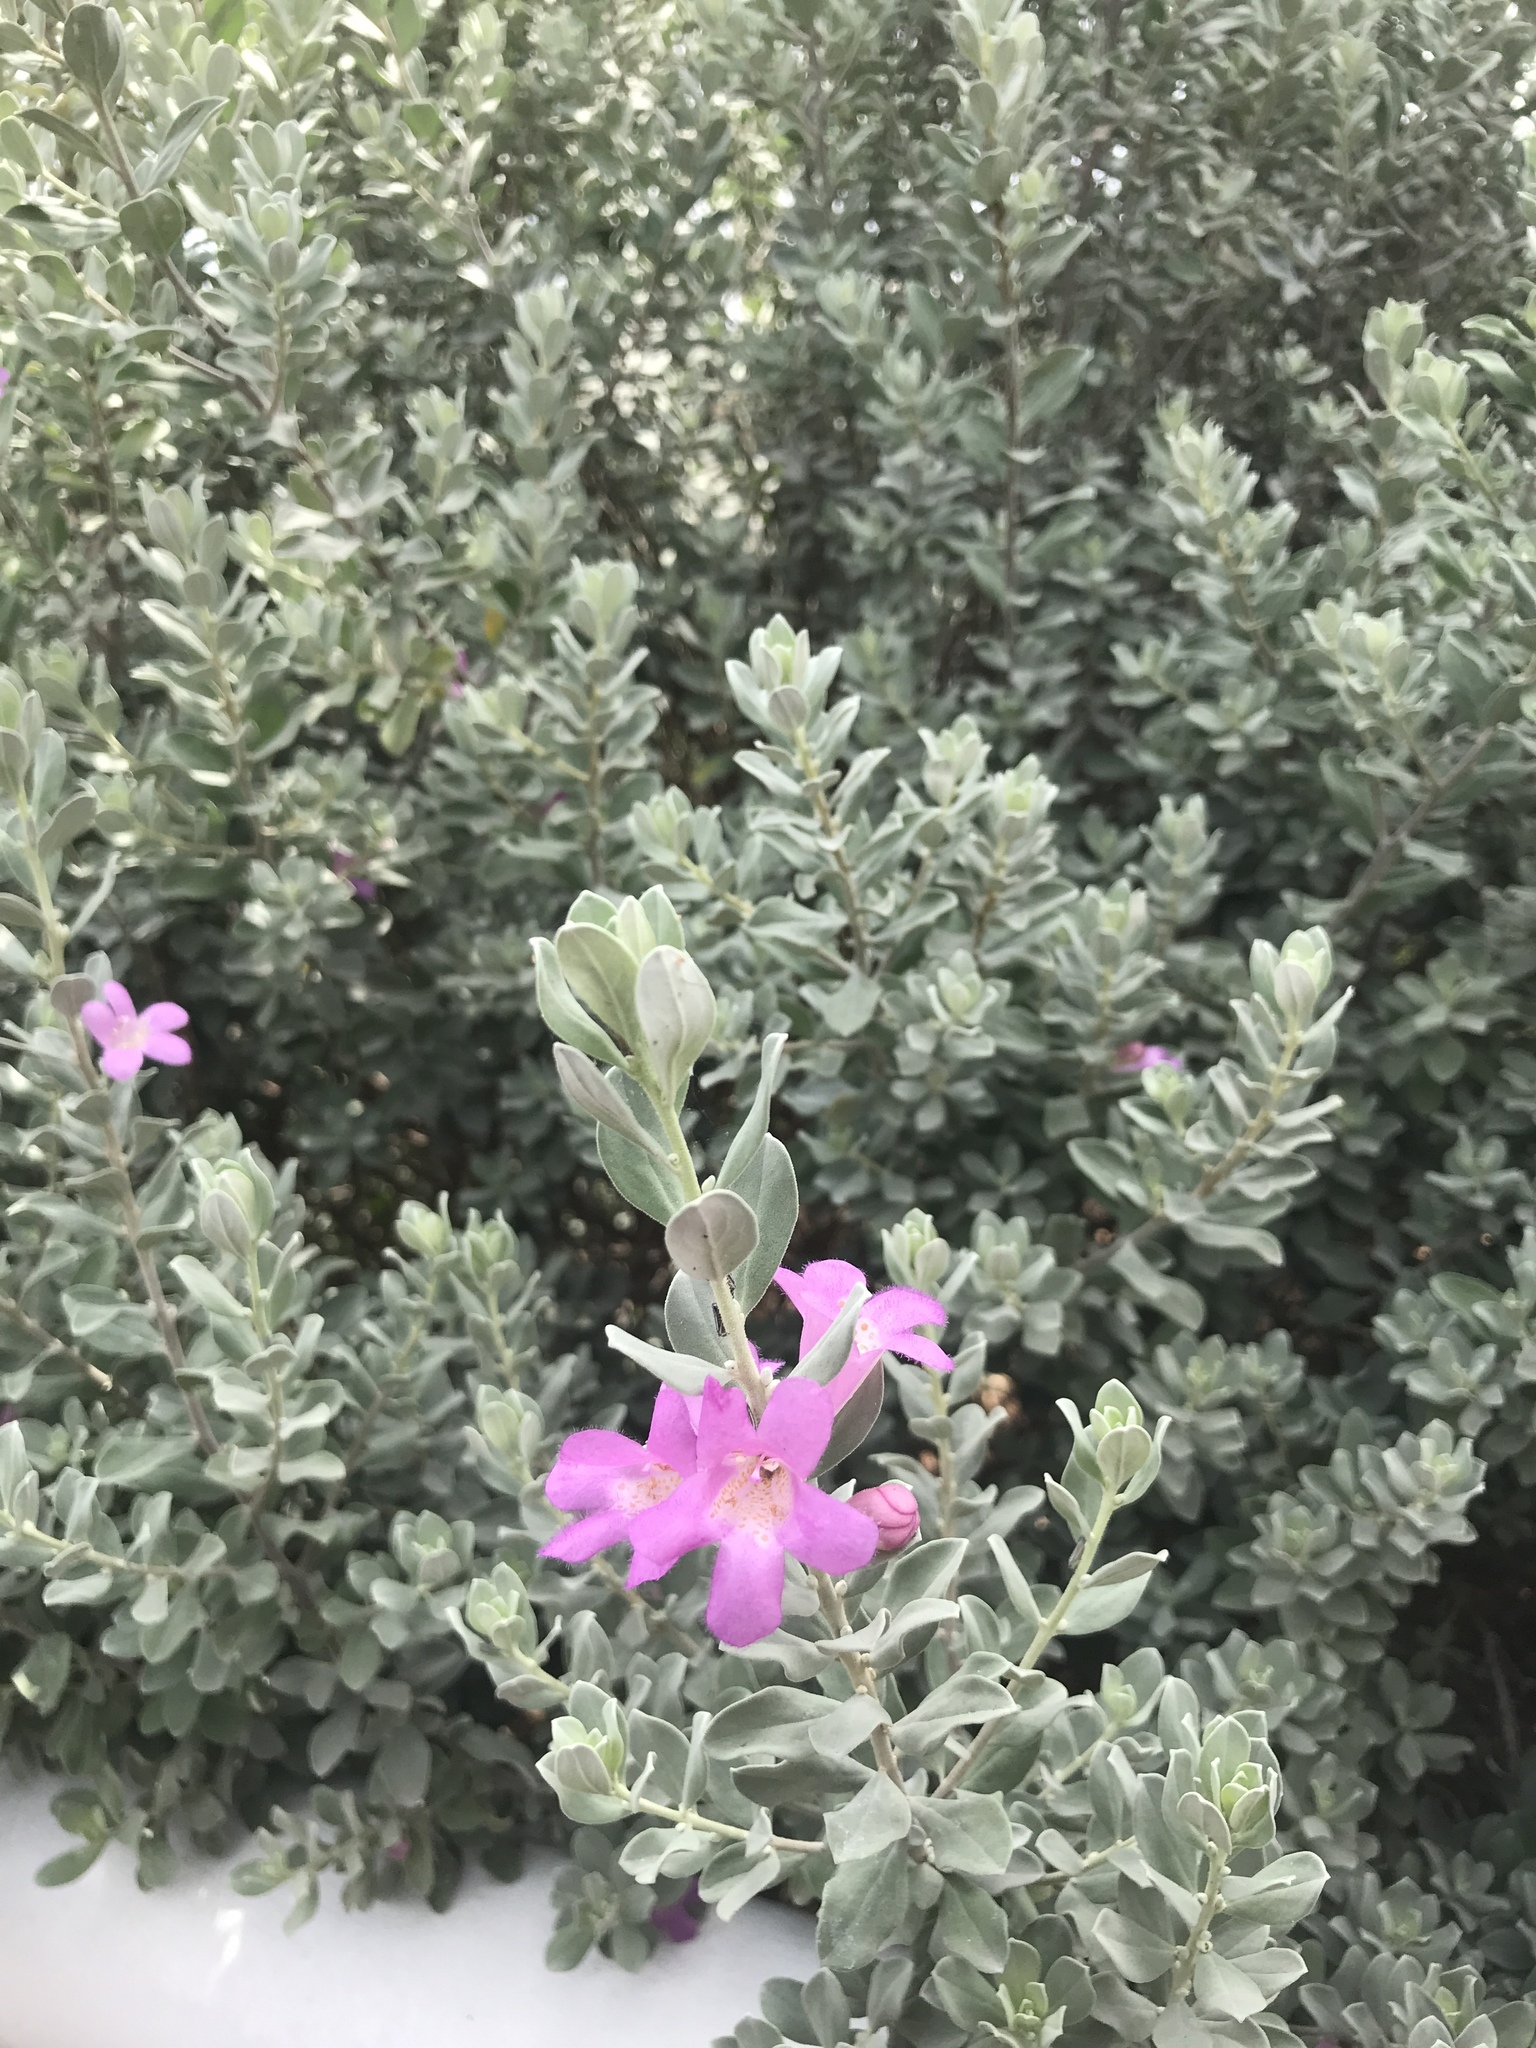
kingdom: Plantae
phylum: Tracheophyta
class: Magnoliopsida
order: Lamiales
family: Scrophulariaceae
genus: Leucophyllum
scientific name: Leucophyllum frutescens
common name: Texas silverleaf
